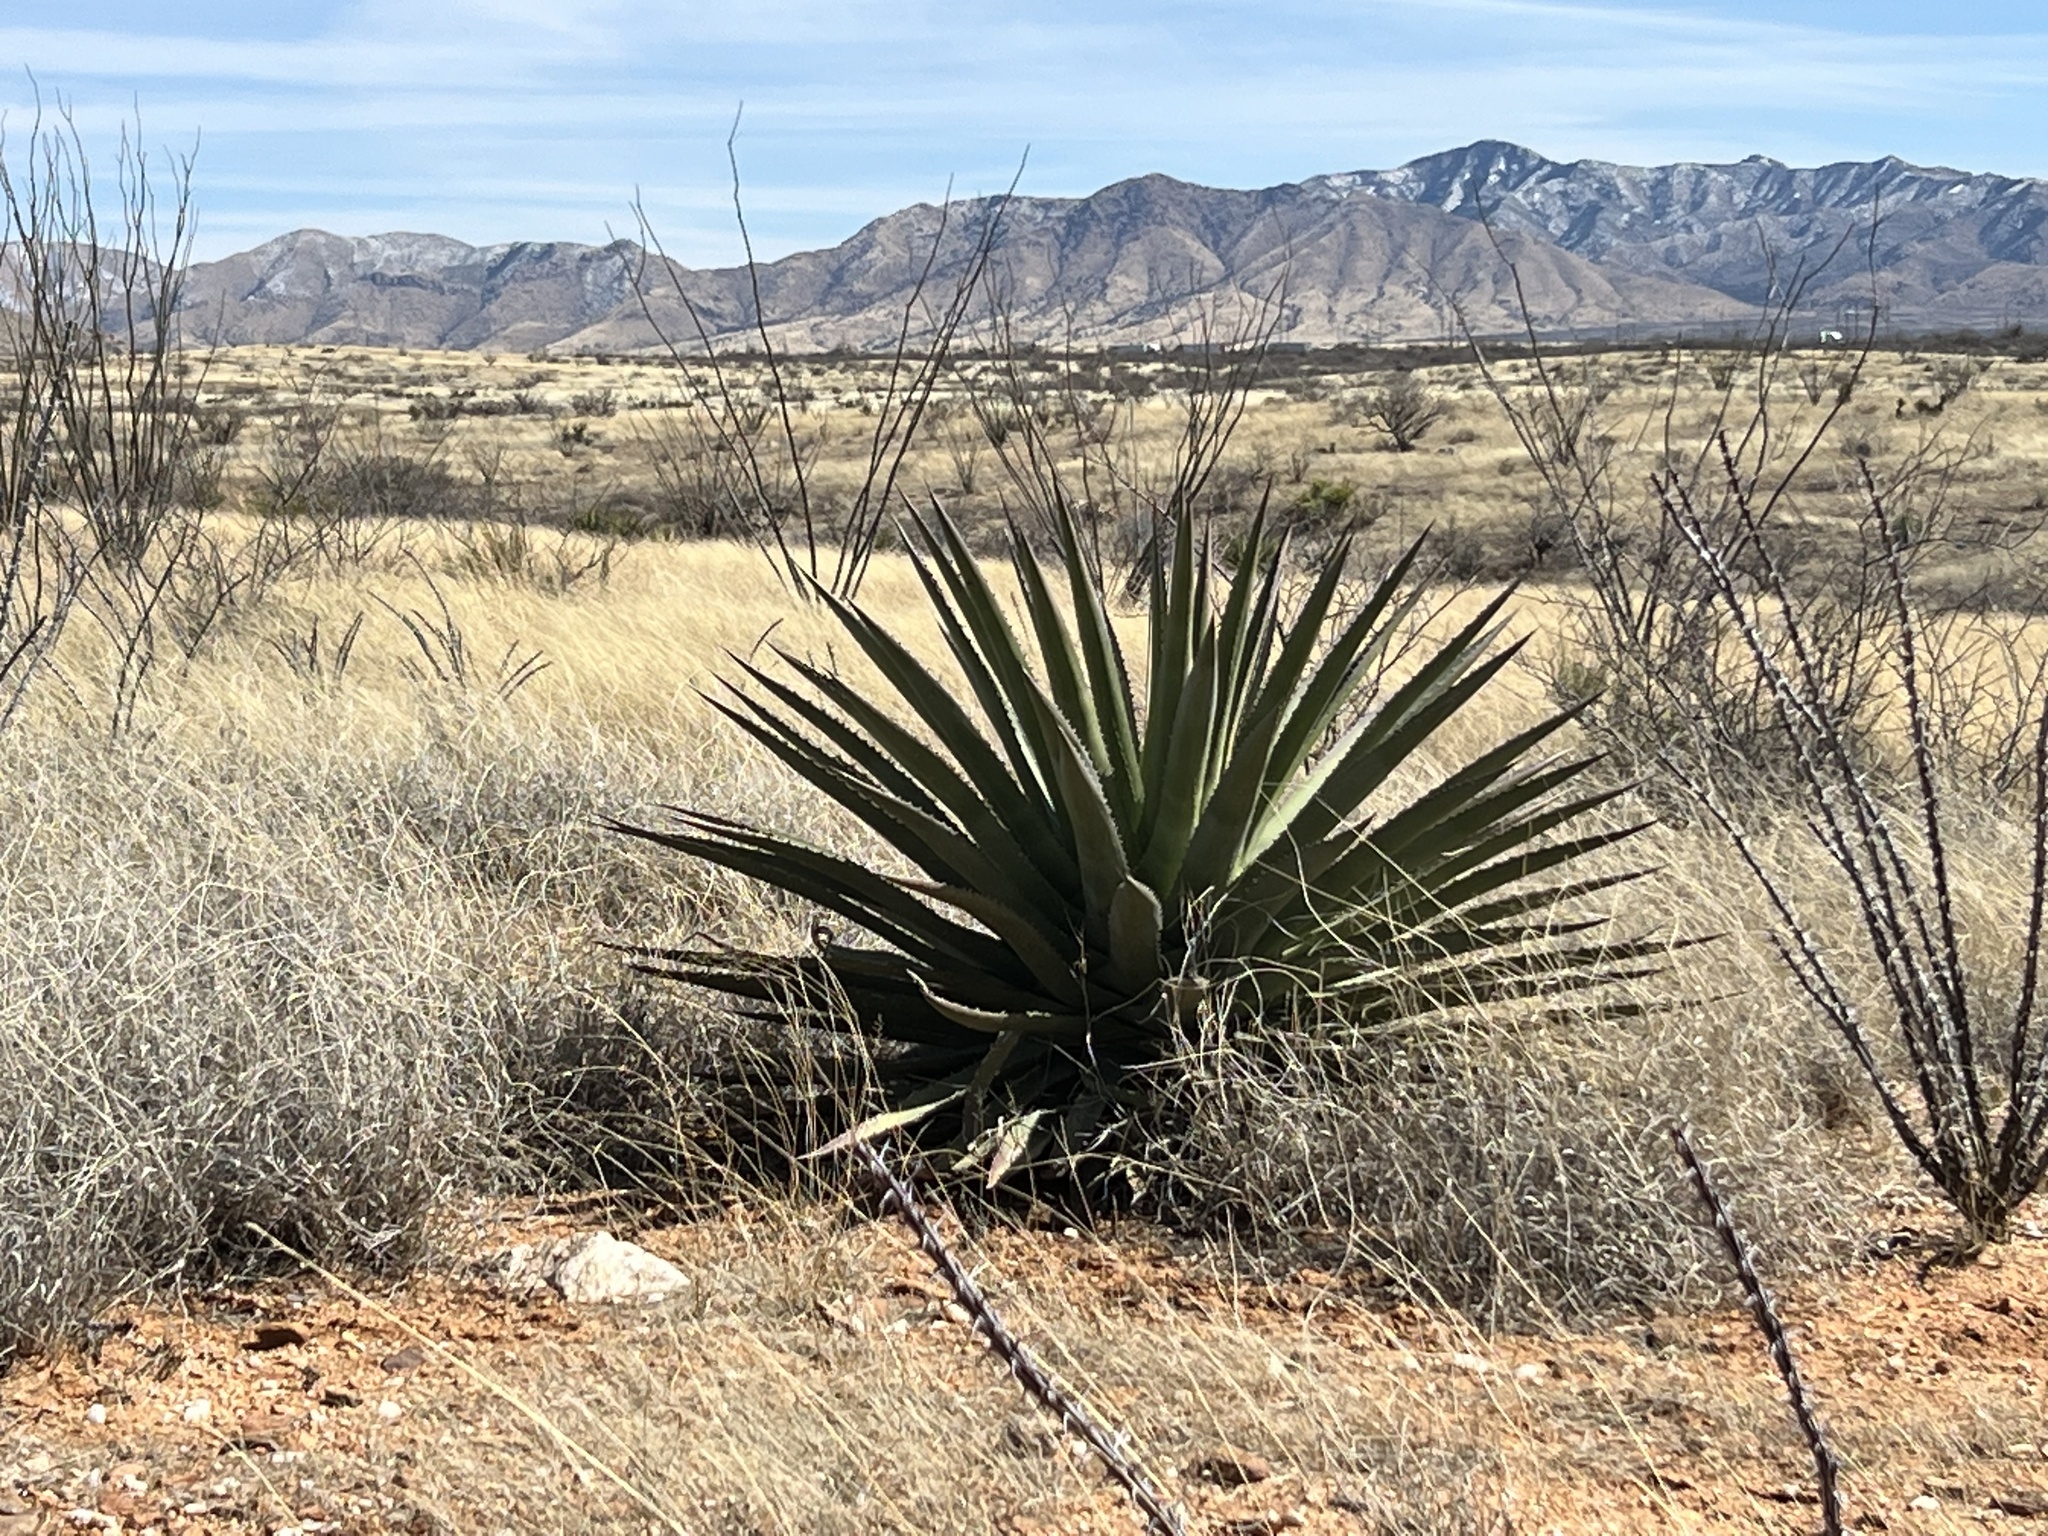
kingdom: Plantae
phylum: Tracheophyta
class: Liliopsida
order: Asparagales
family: Asparagaceae
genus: Agave
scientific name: Agave palmeri
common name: Palmer agave
